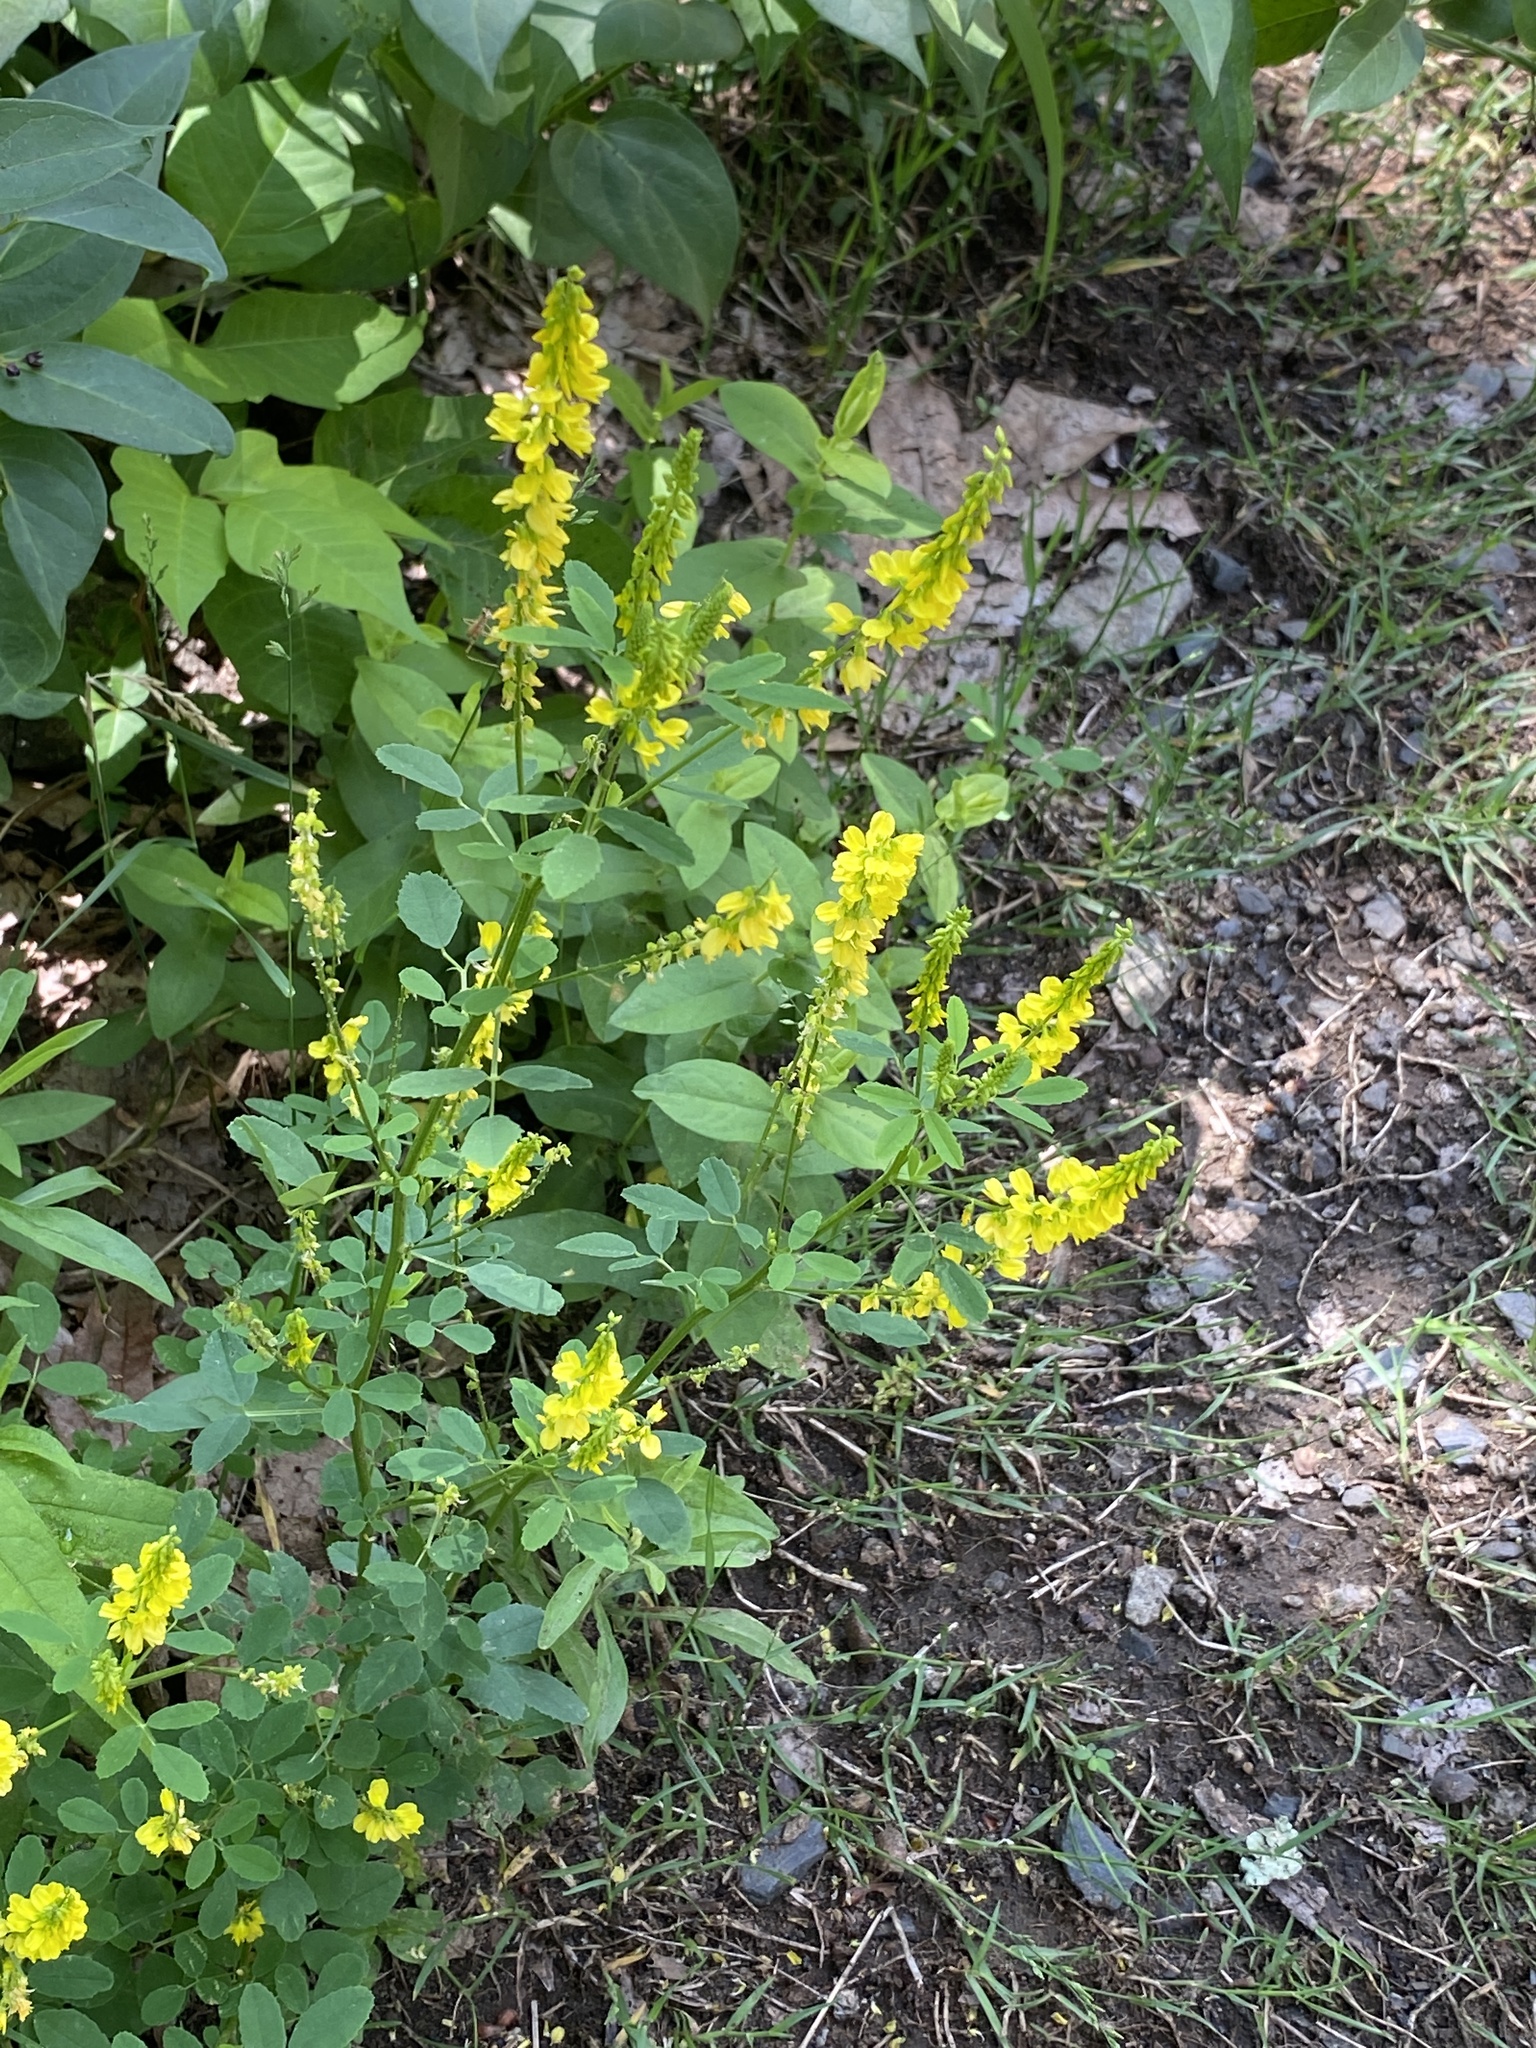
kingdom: Plantae
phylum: Tracheophyta
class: Magnoliopsida
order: Fabales
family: Fabaceae
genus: Melilotus
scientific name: Melilotus officinalis
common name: Sweetclover
